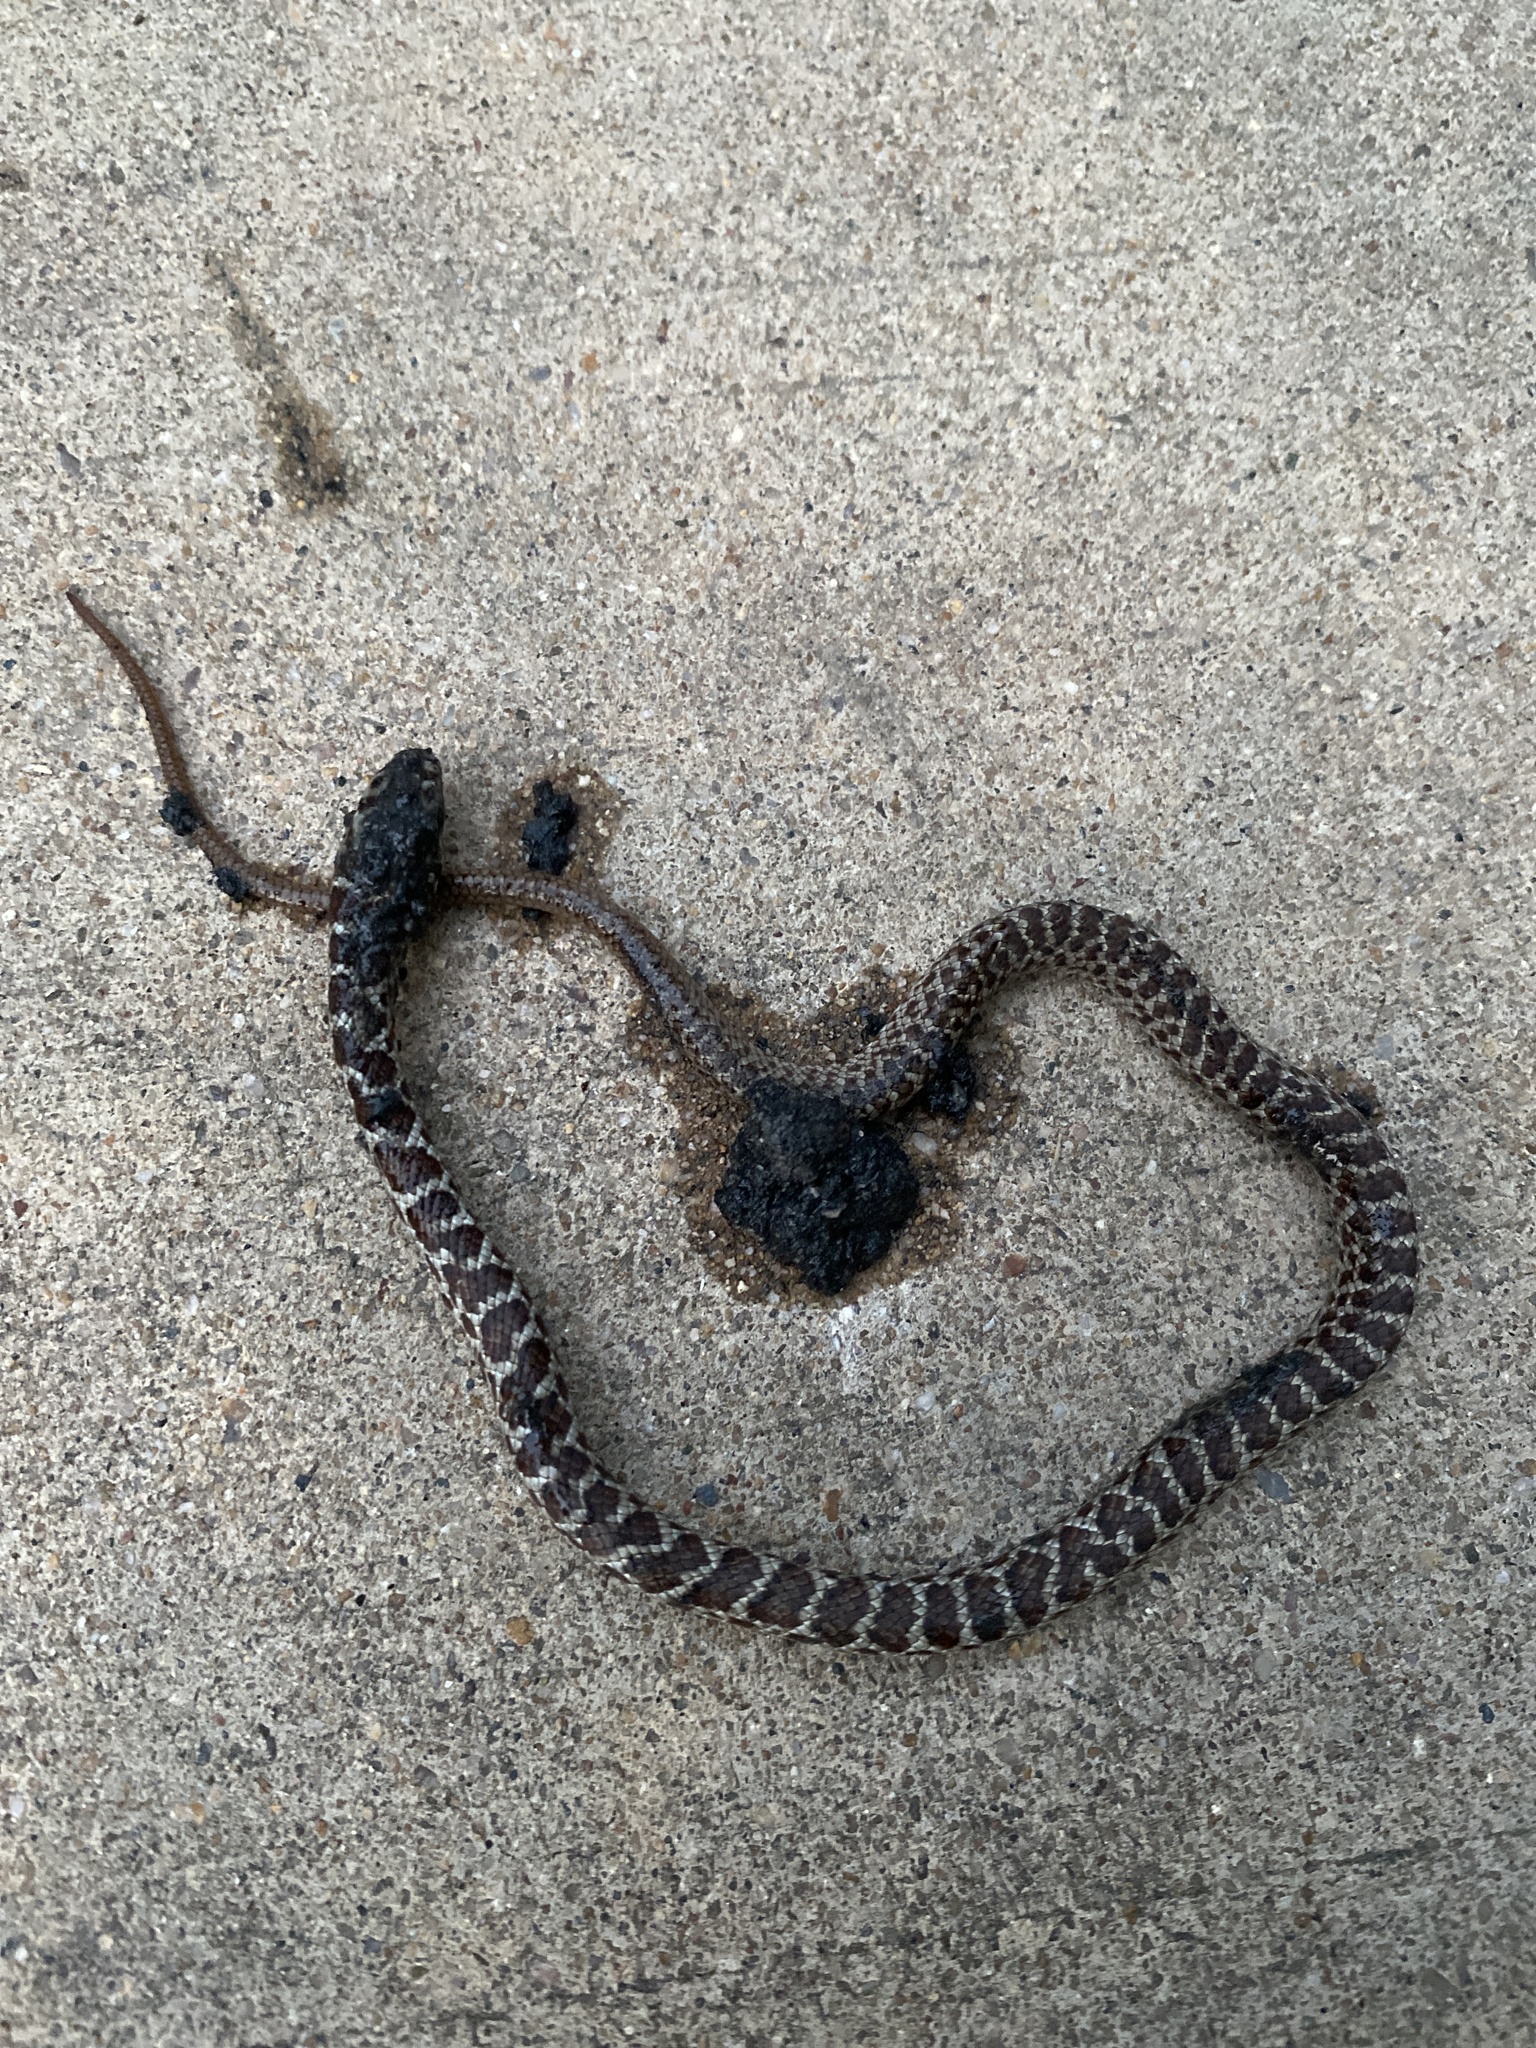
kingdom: Animalia
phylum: Chordata
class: Squamata
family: Colubridae
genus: Coluber
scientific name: Coluber constrictor
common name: Eastern racer
